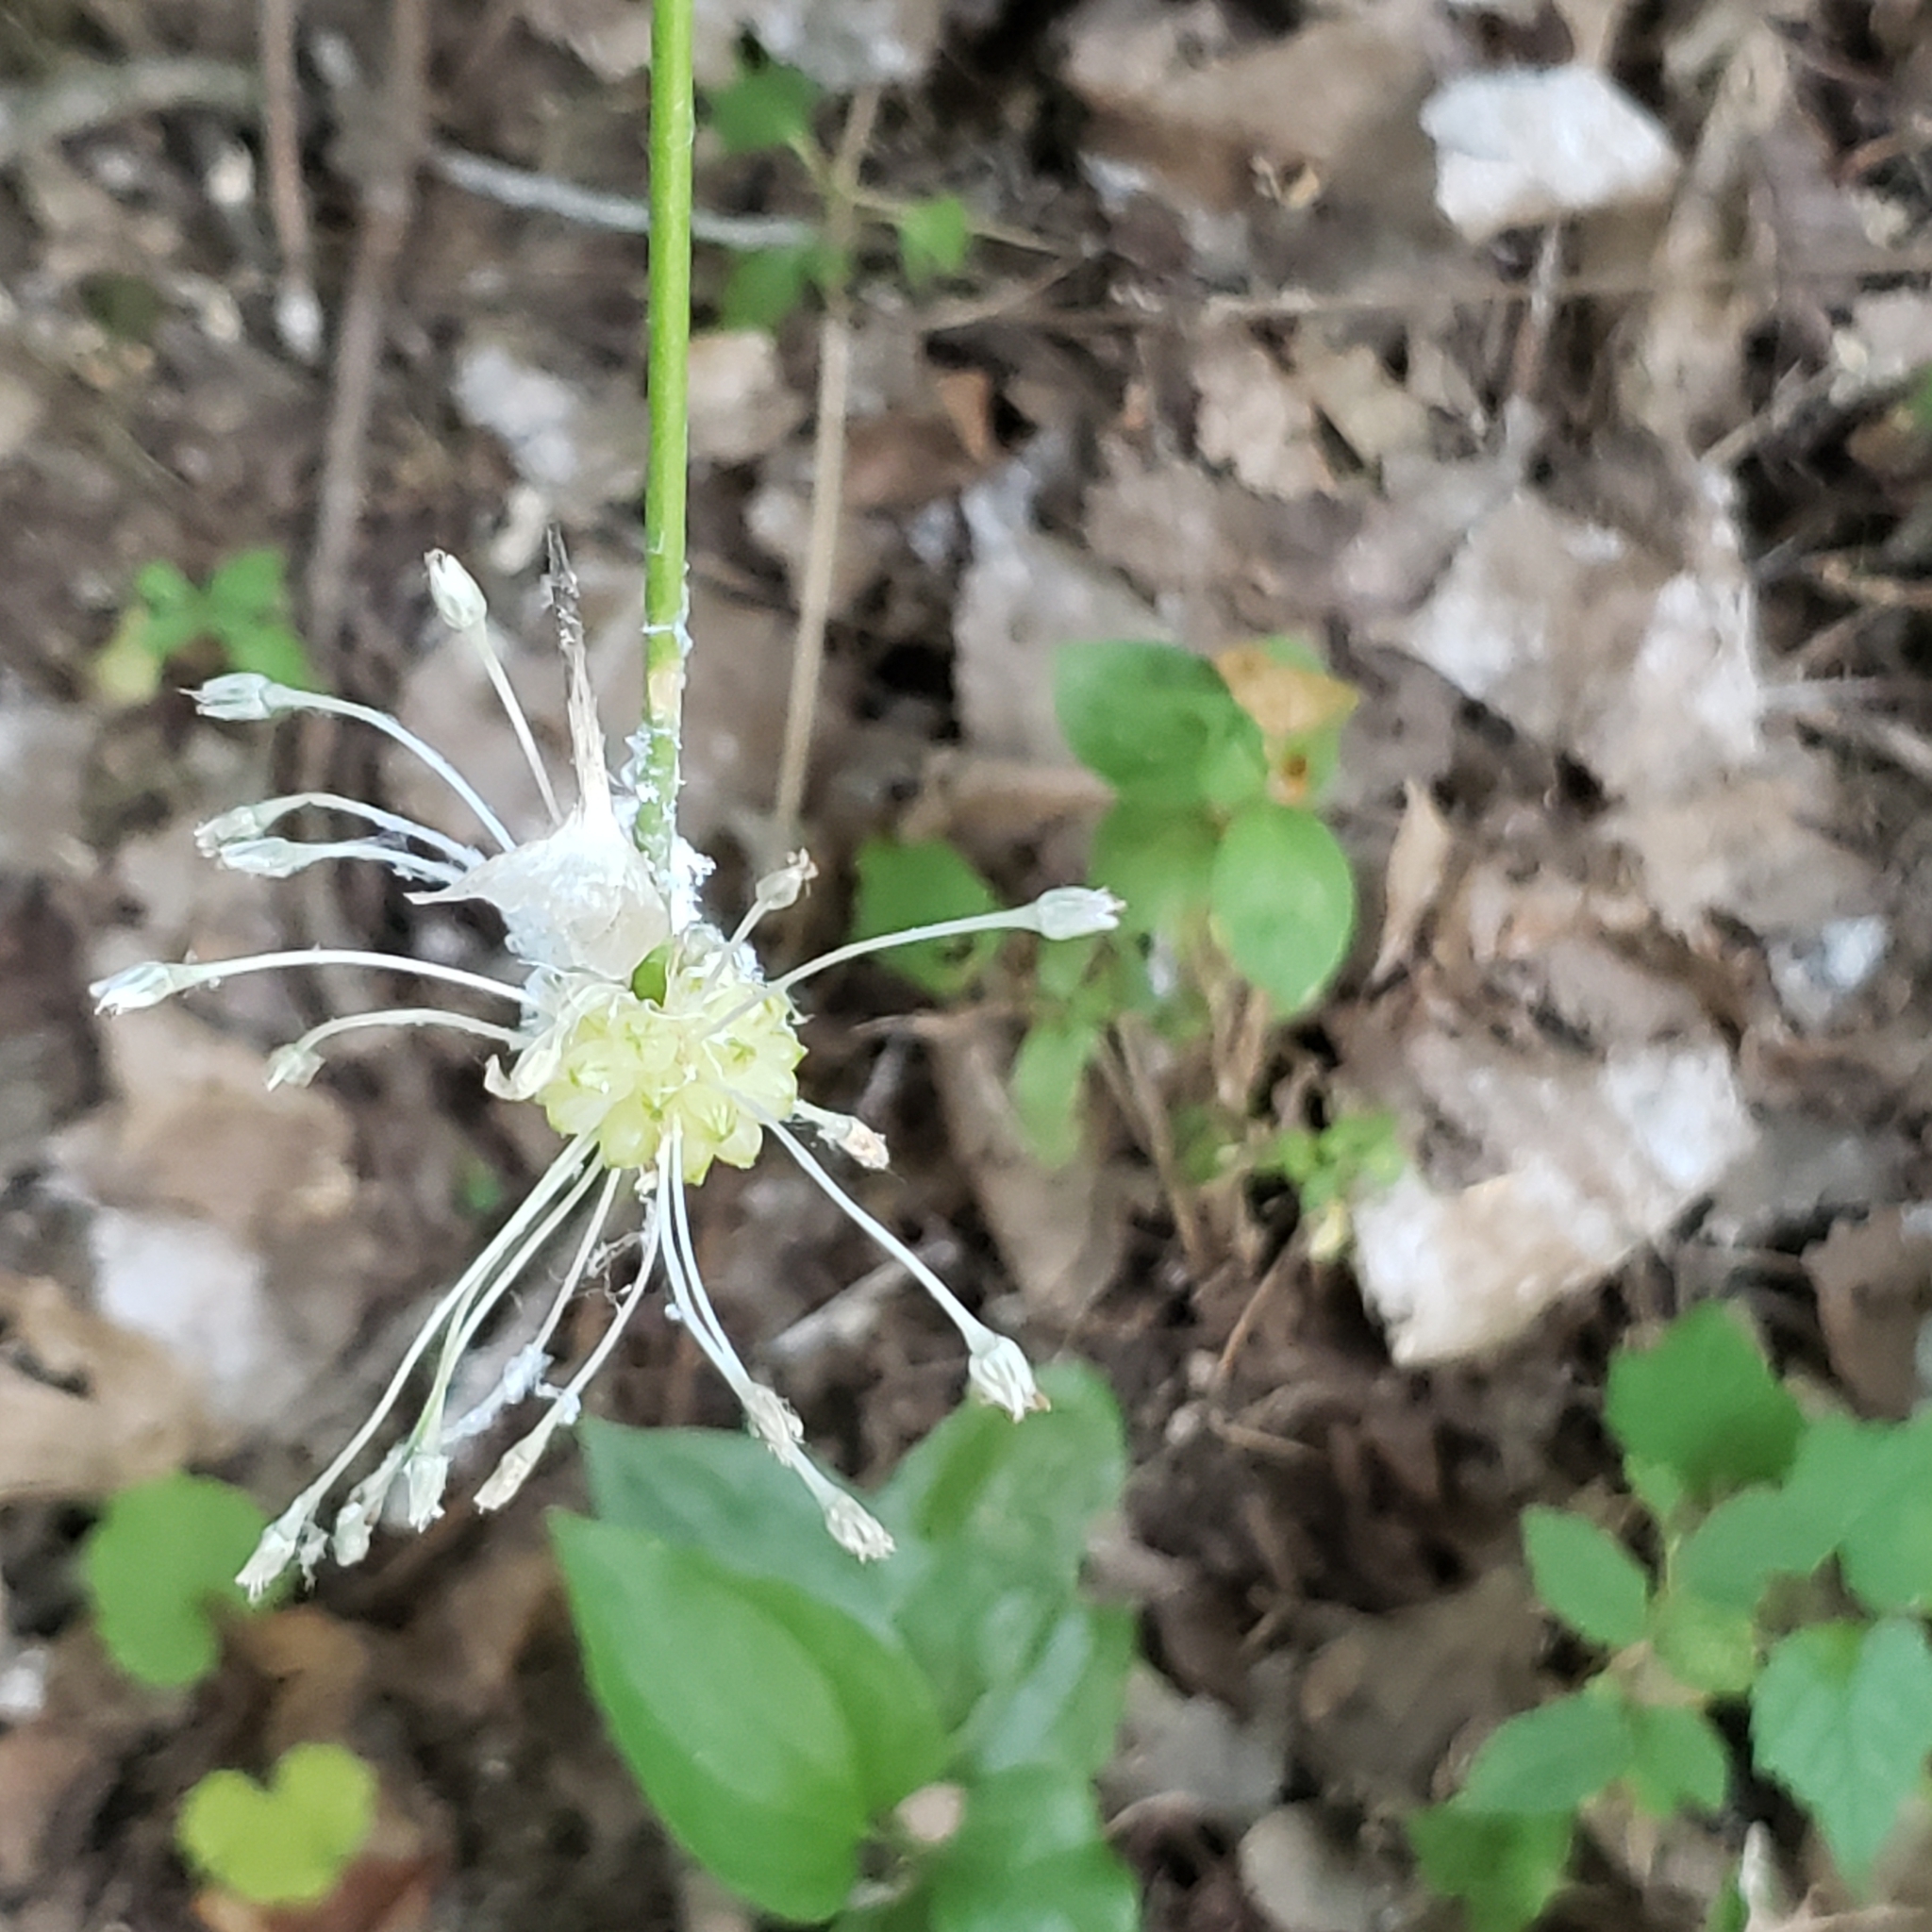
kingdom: Plantae
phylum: Tracheophyta
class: Liliopsida
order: Asparagales
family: Amaryllidaceae
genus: Allium
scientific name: Allium vineale
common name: Crow garlic
